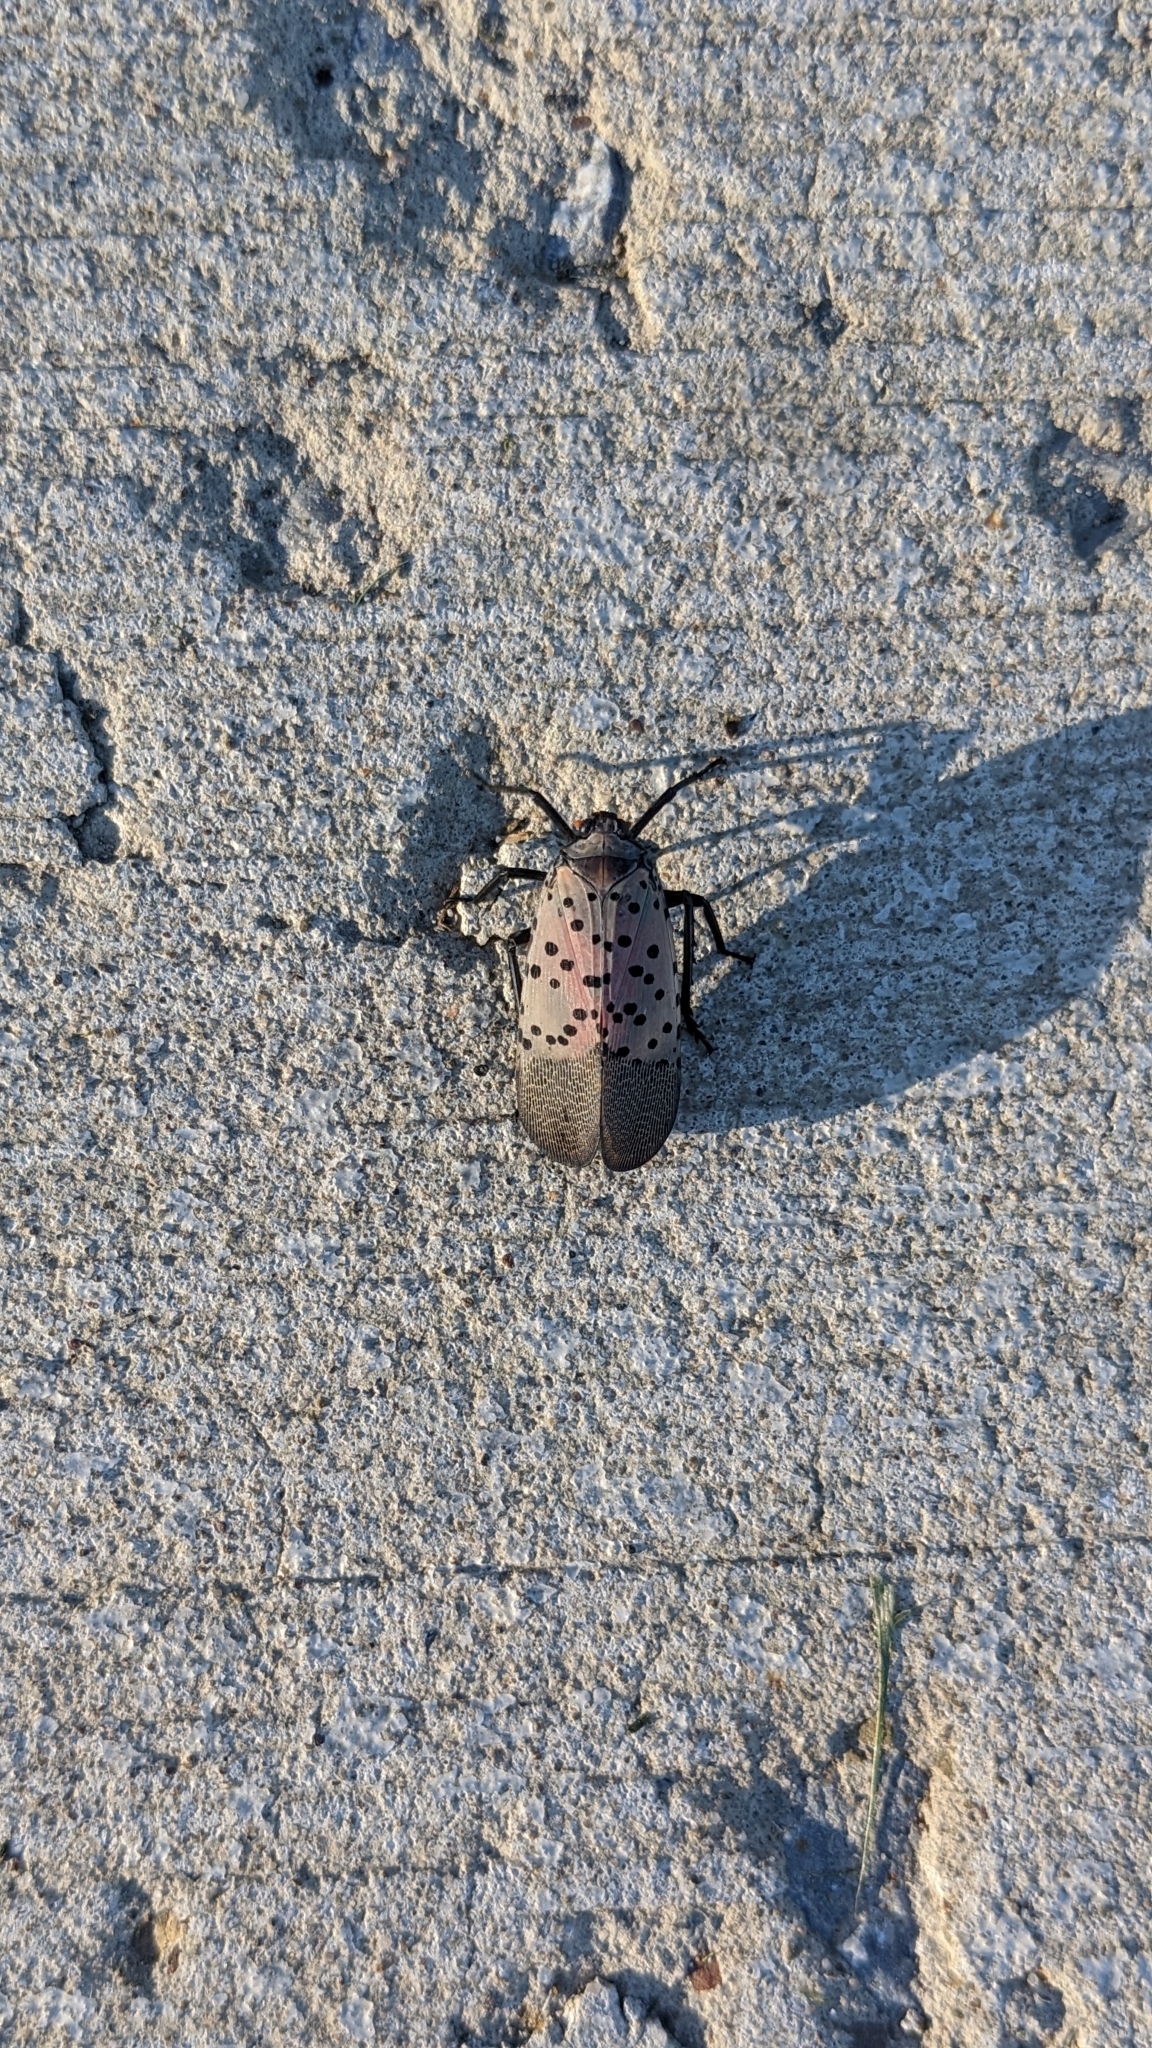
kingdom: Animalia
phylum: Arthropoda
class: Insecta
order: Hemiptera
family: Fulgoridae
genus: Lycorma
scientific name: Lycorma delicatula
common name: Spotted lanternfly
